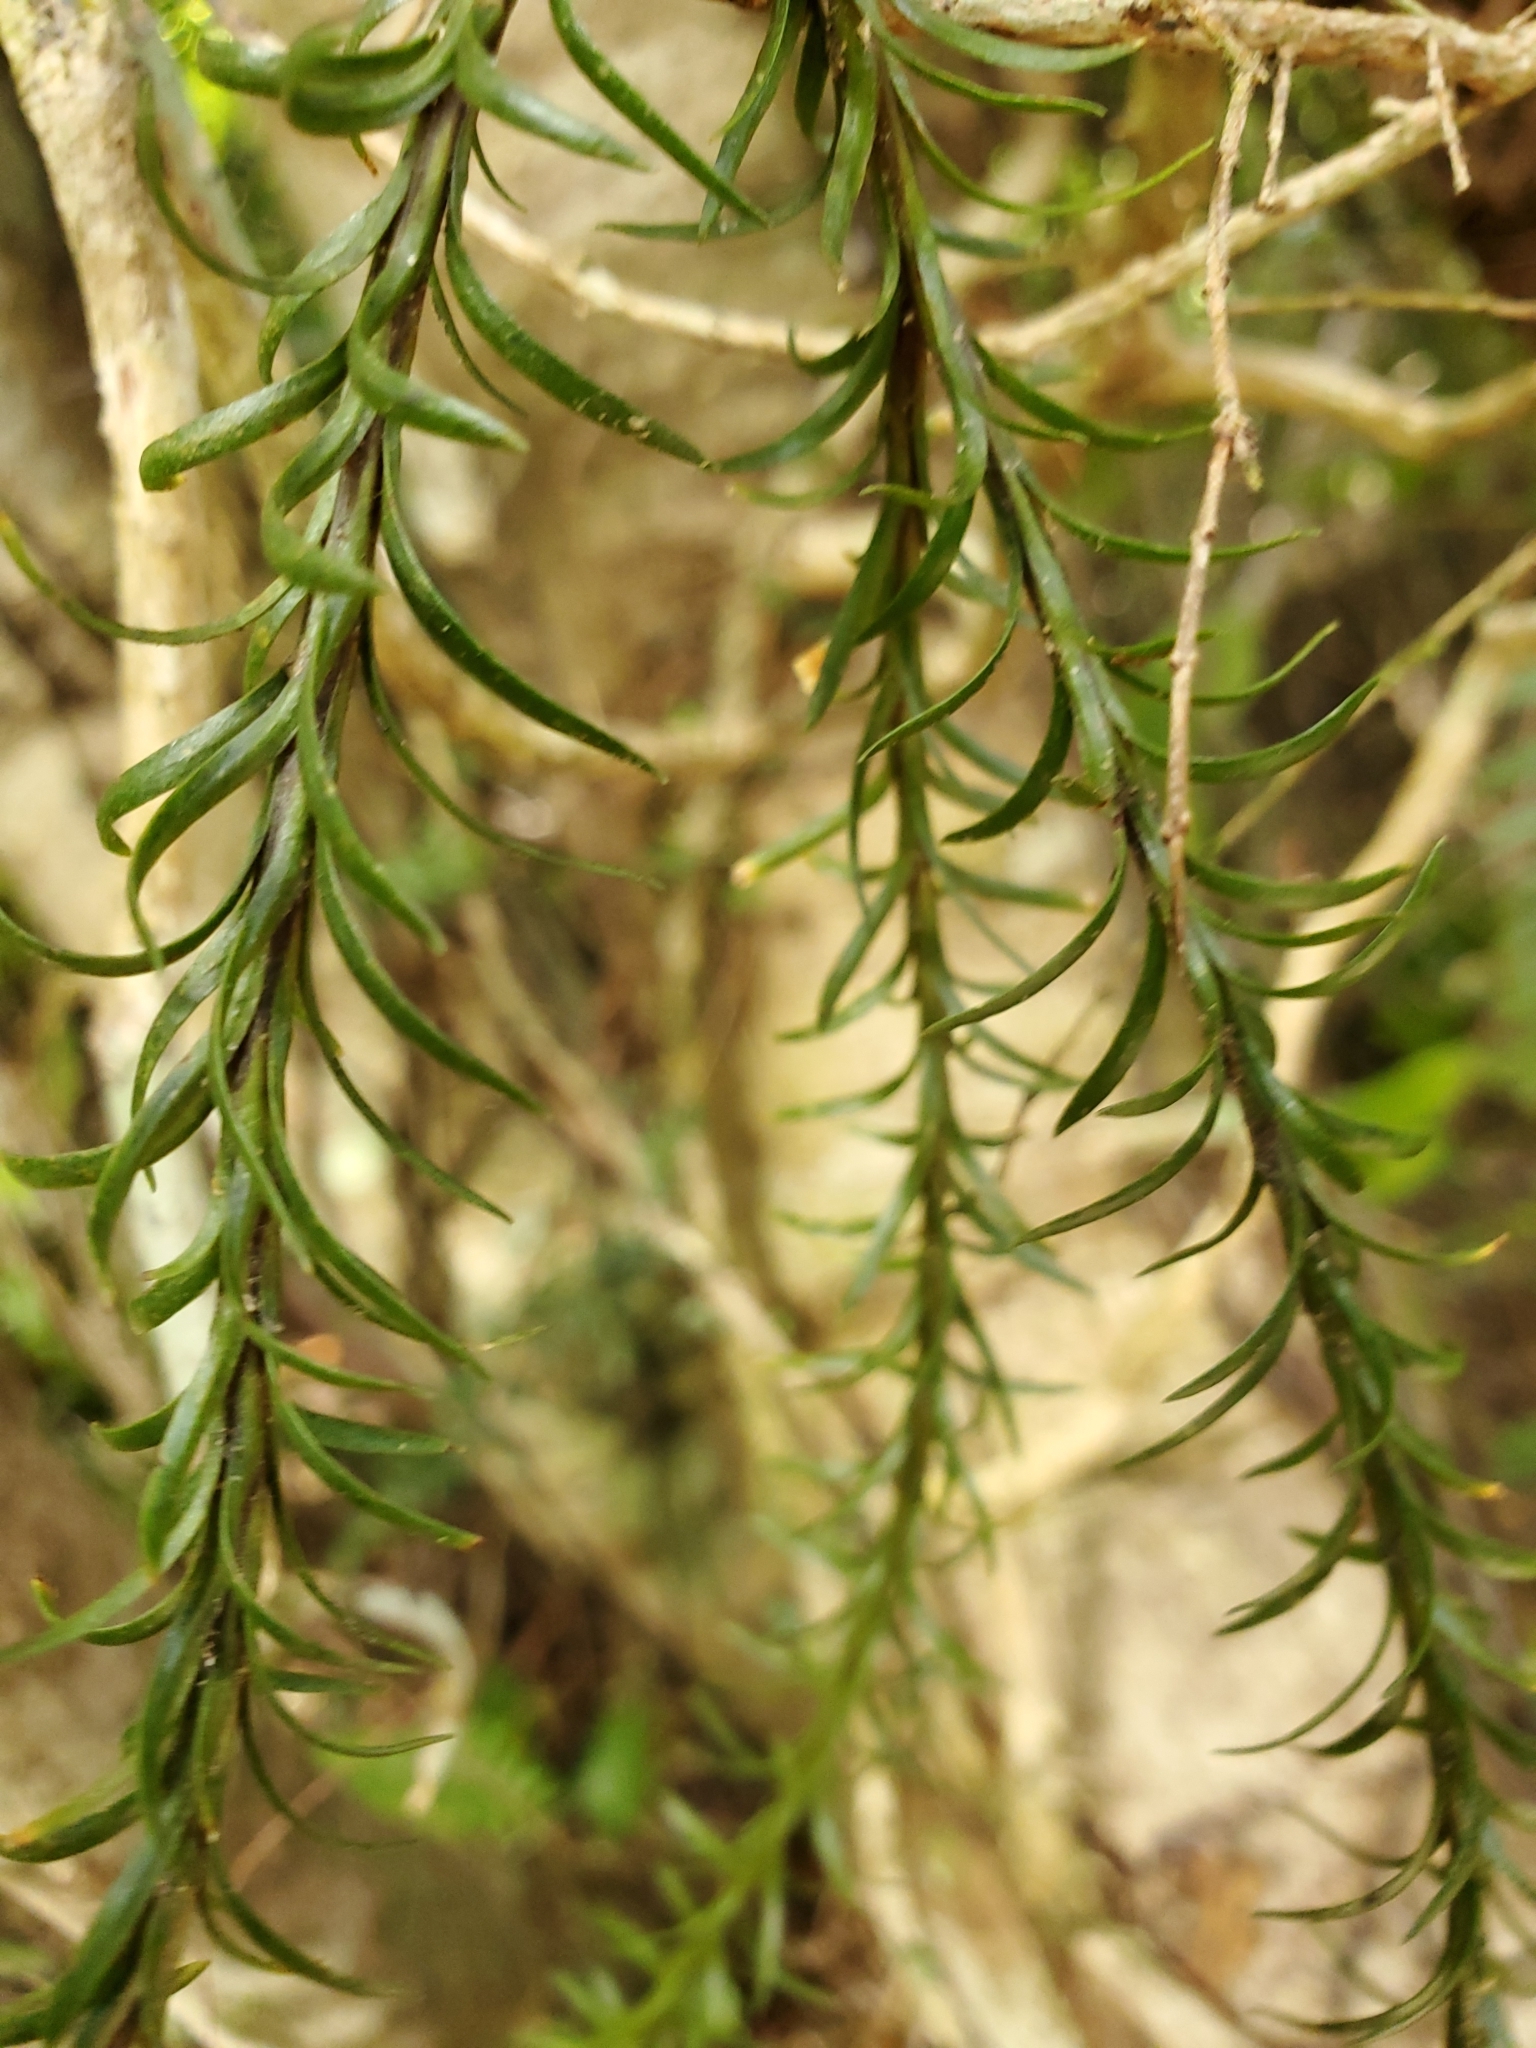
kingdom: Plantae
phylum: Tracheophyta
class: Lycopodiopsida
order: Lycopodiales
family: Lycopodiaceae
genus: Phlegmariurus
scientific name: Phlegmariurus
